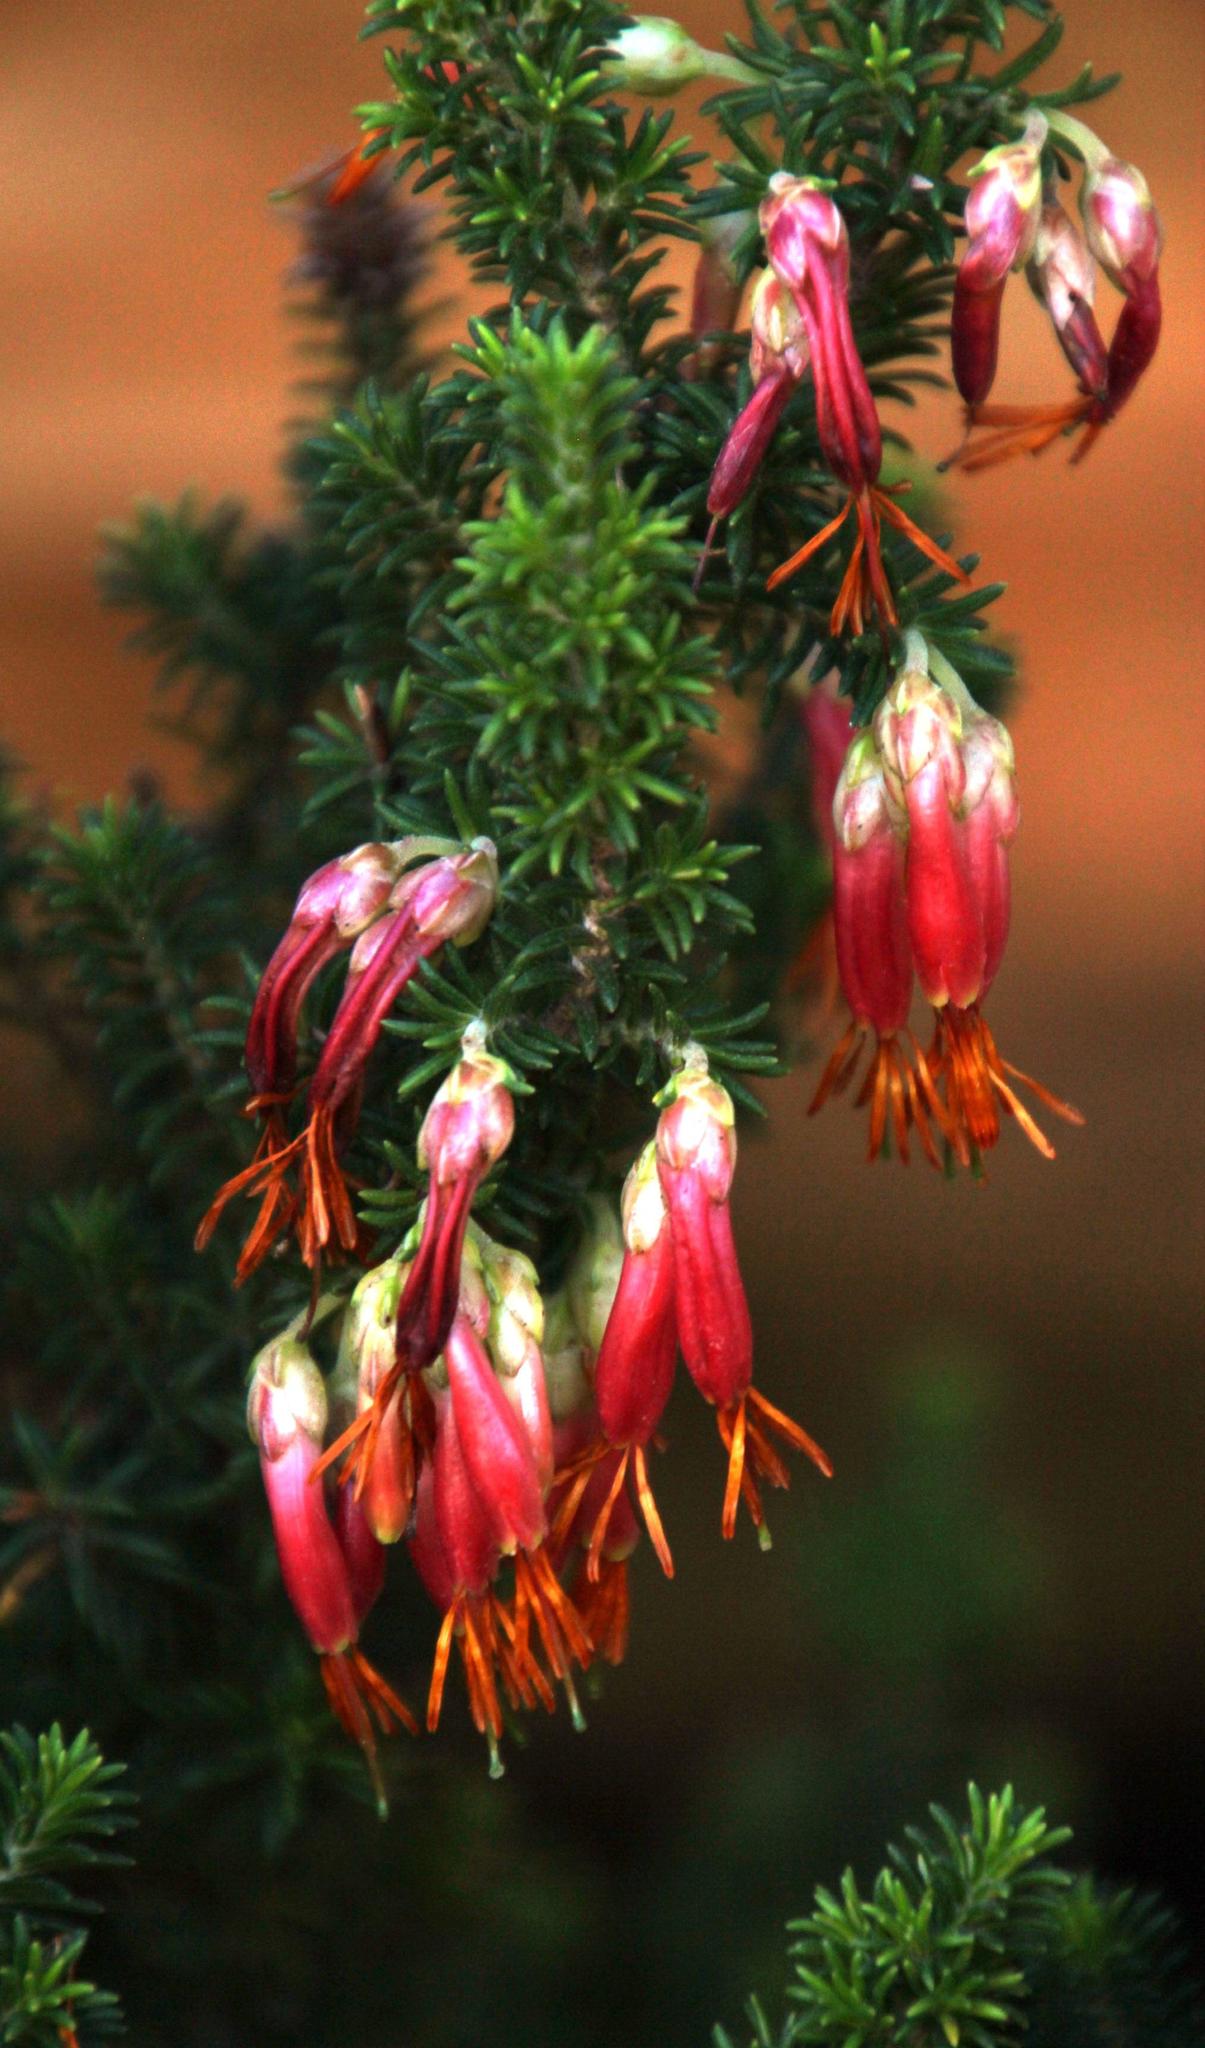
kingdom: Plantae
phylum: Tracheophyta
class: Magnoliopsida
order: Ericales
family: Ericaceae
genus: Erica
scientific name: Erica coccinea
